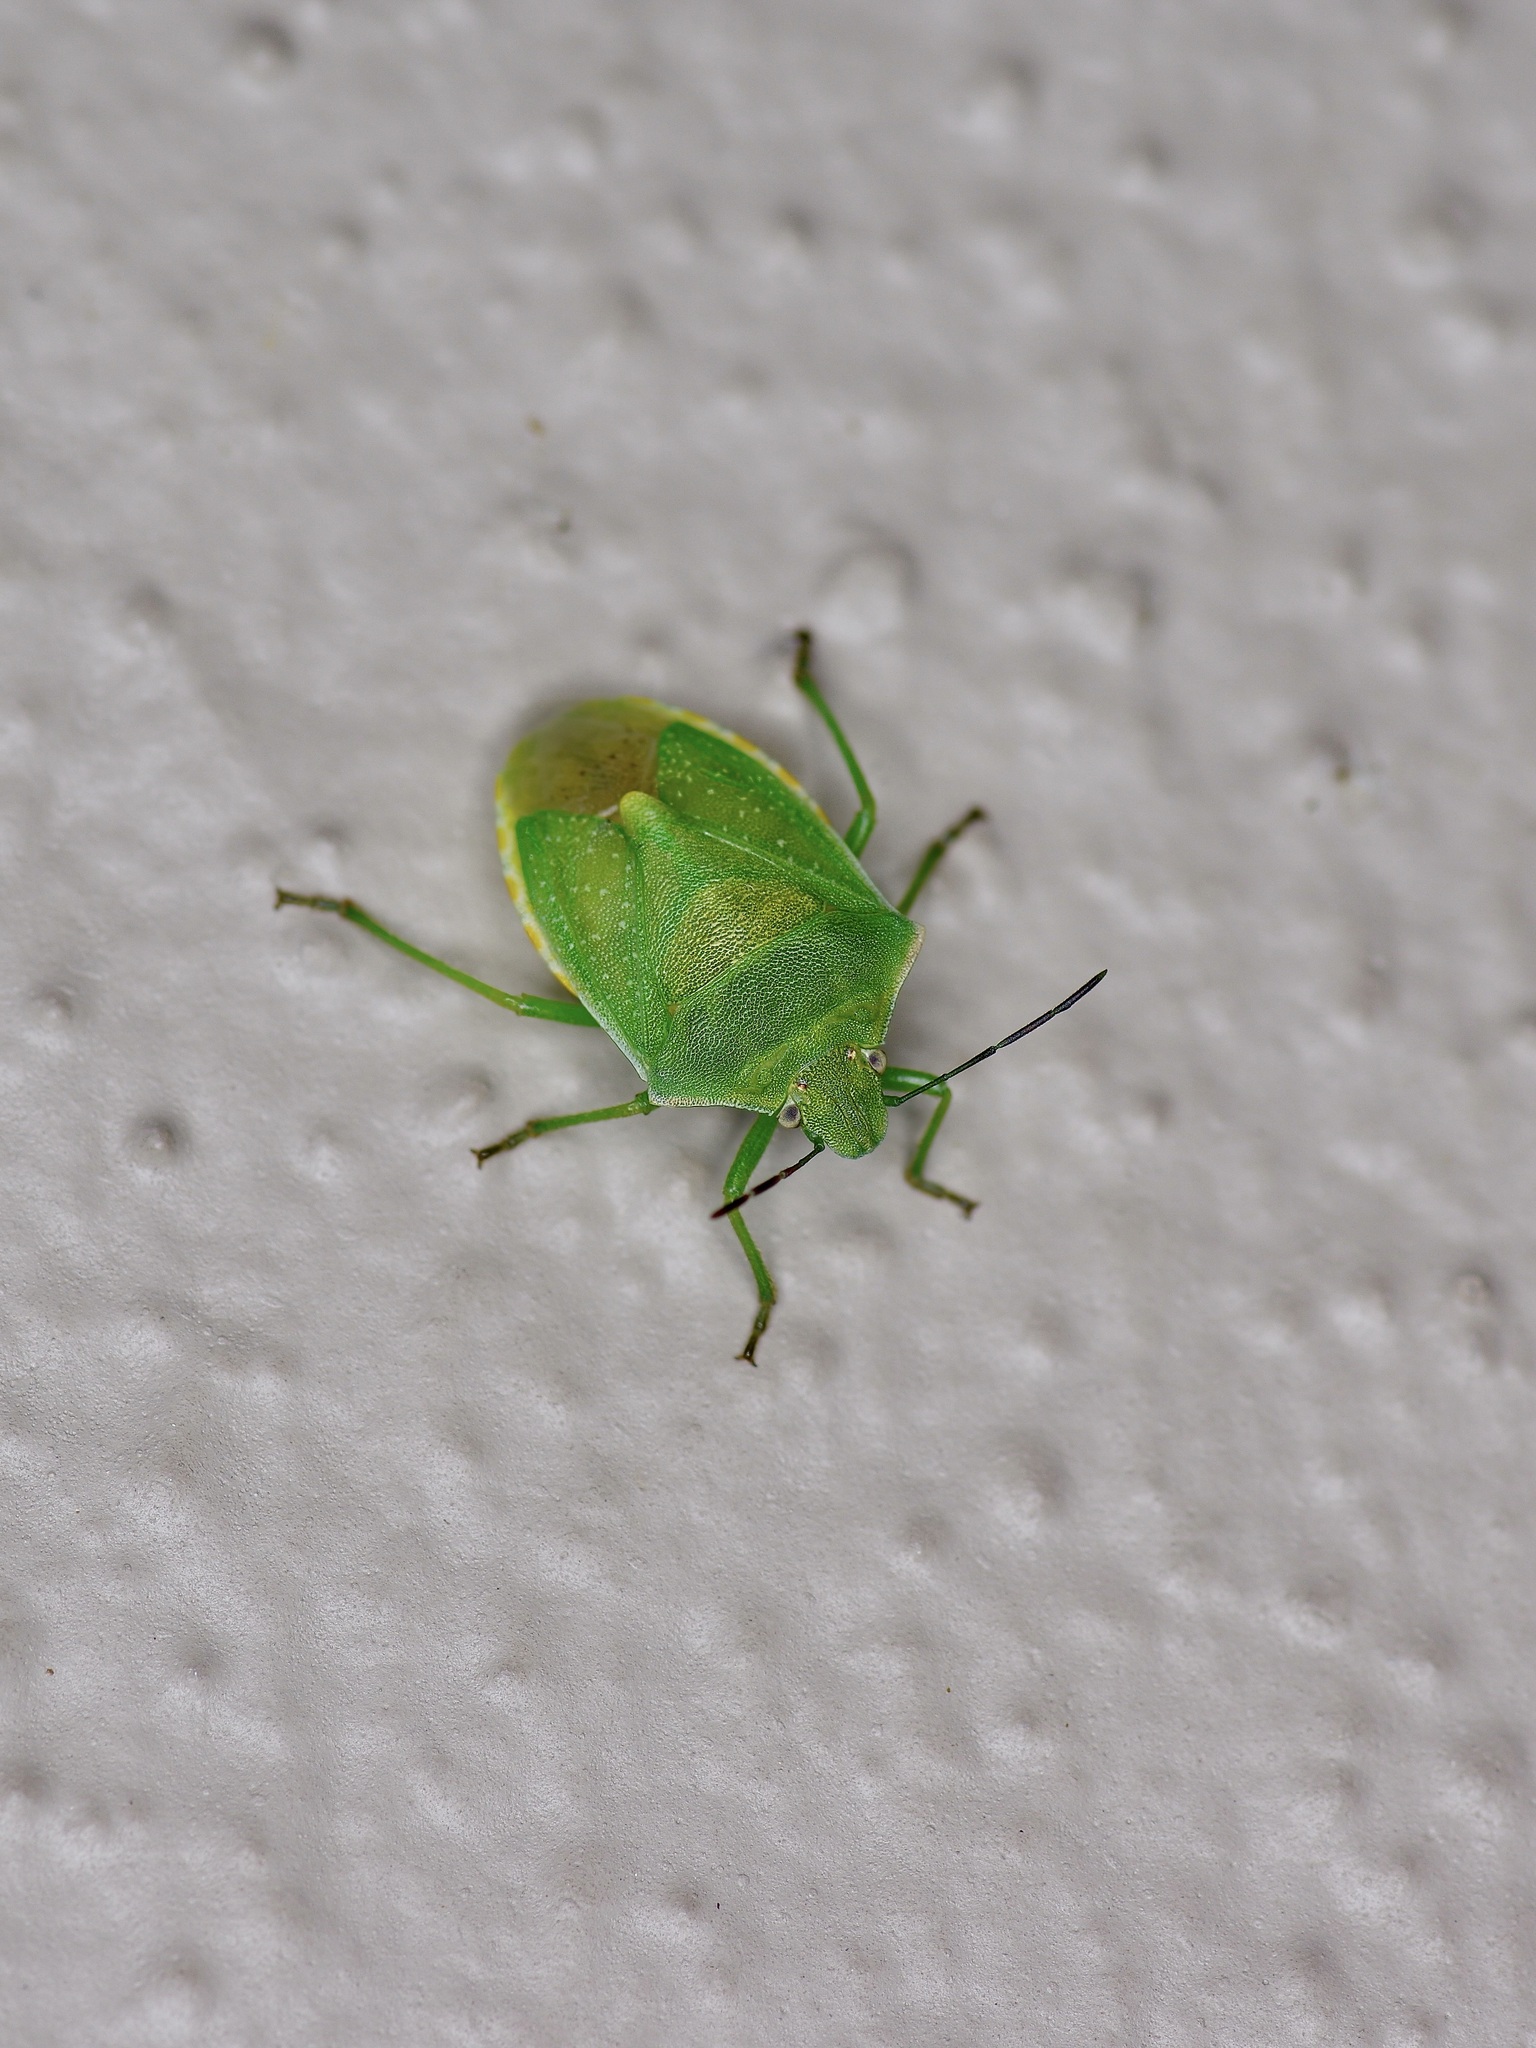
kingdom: Animalia
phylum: Arthropoda
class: Insecta
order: Hemiptera
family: Pentatomidae
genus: Thyanta
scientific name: Thyanta accerra
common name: Stink bug
